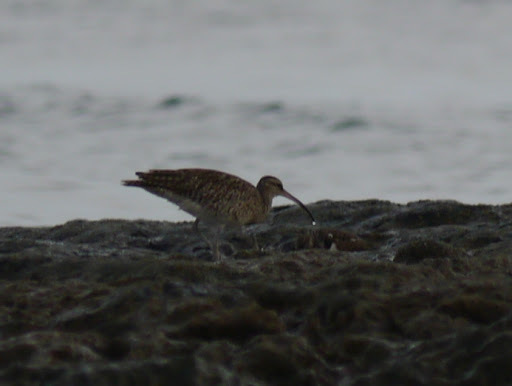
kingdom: Animalia
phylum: Chordata
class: Aves
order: Charadriiformes
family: Scolopacidae
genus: Numenius
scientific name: Numenius phaeopus
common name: Whimbrel
